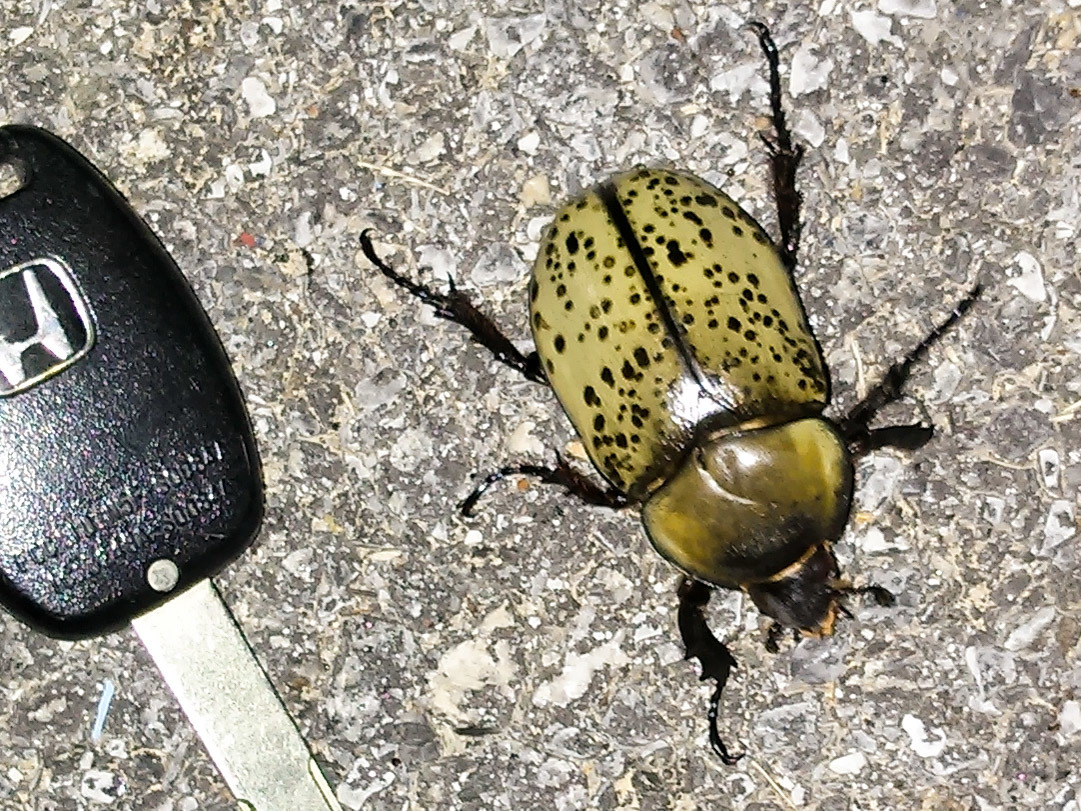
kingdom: Animalia
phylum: Arthropoda
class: Insecta
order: Coleoptera
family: Scarabaeidae
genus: Dynastes
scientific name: Dynastes tityus
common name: Eastern hercules beetle
